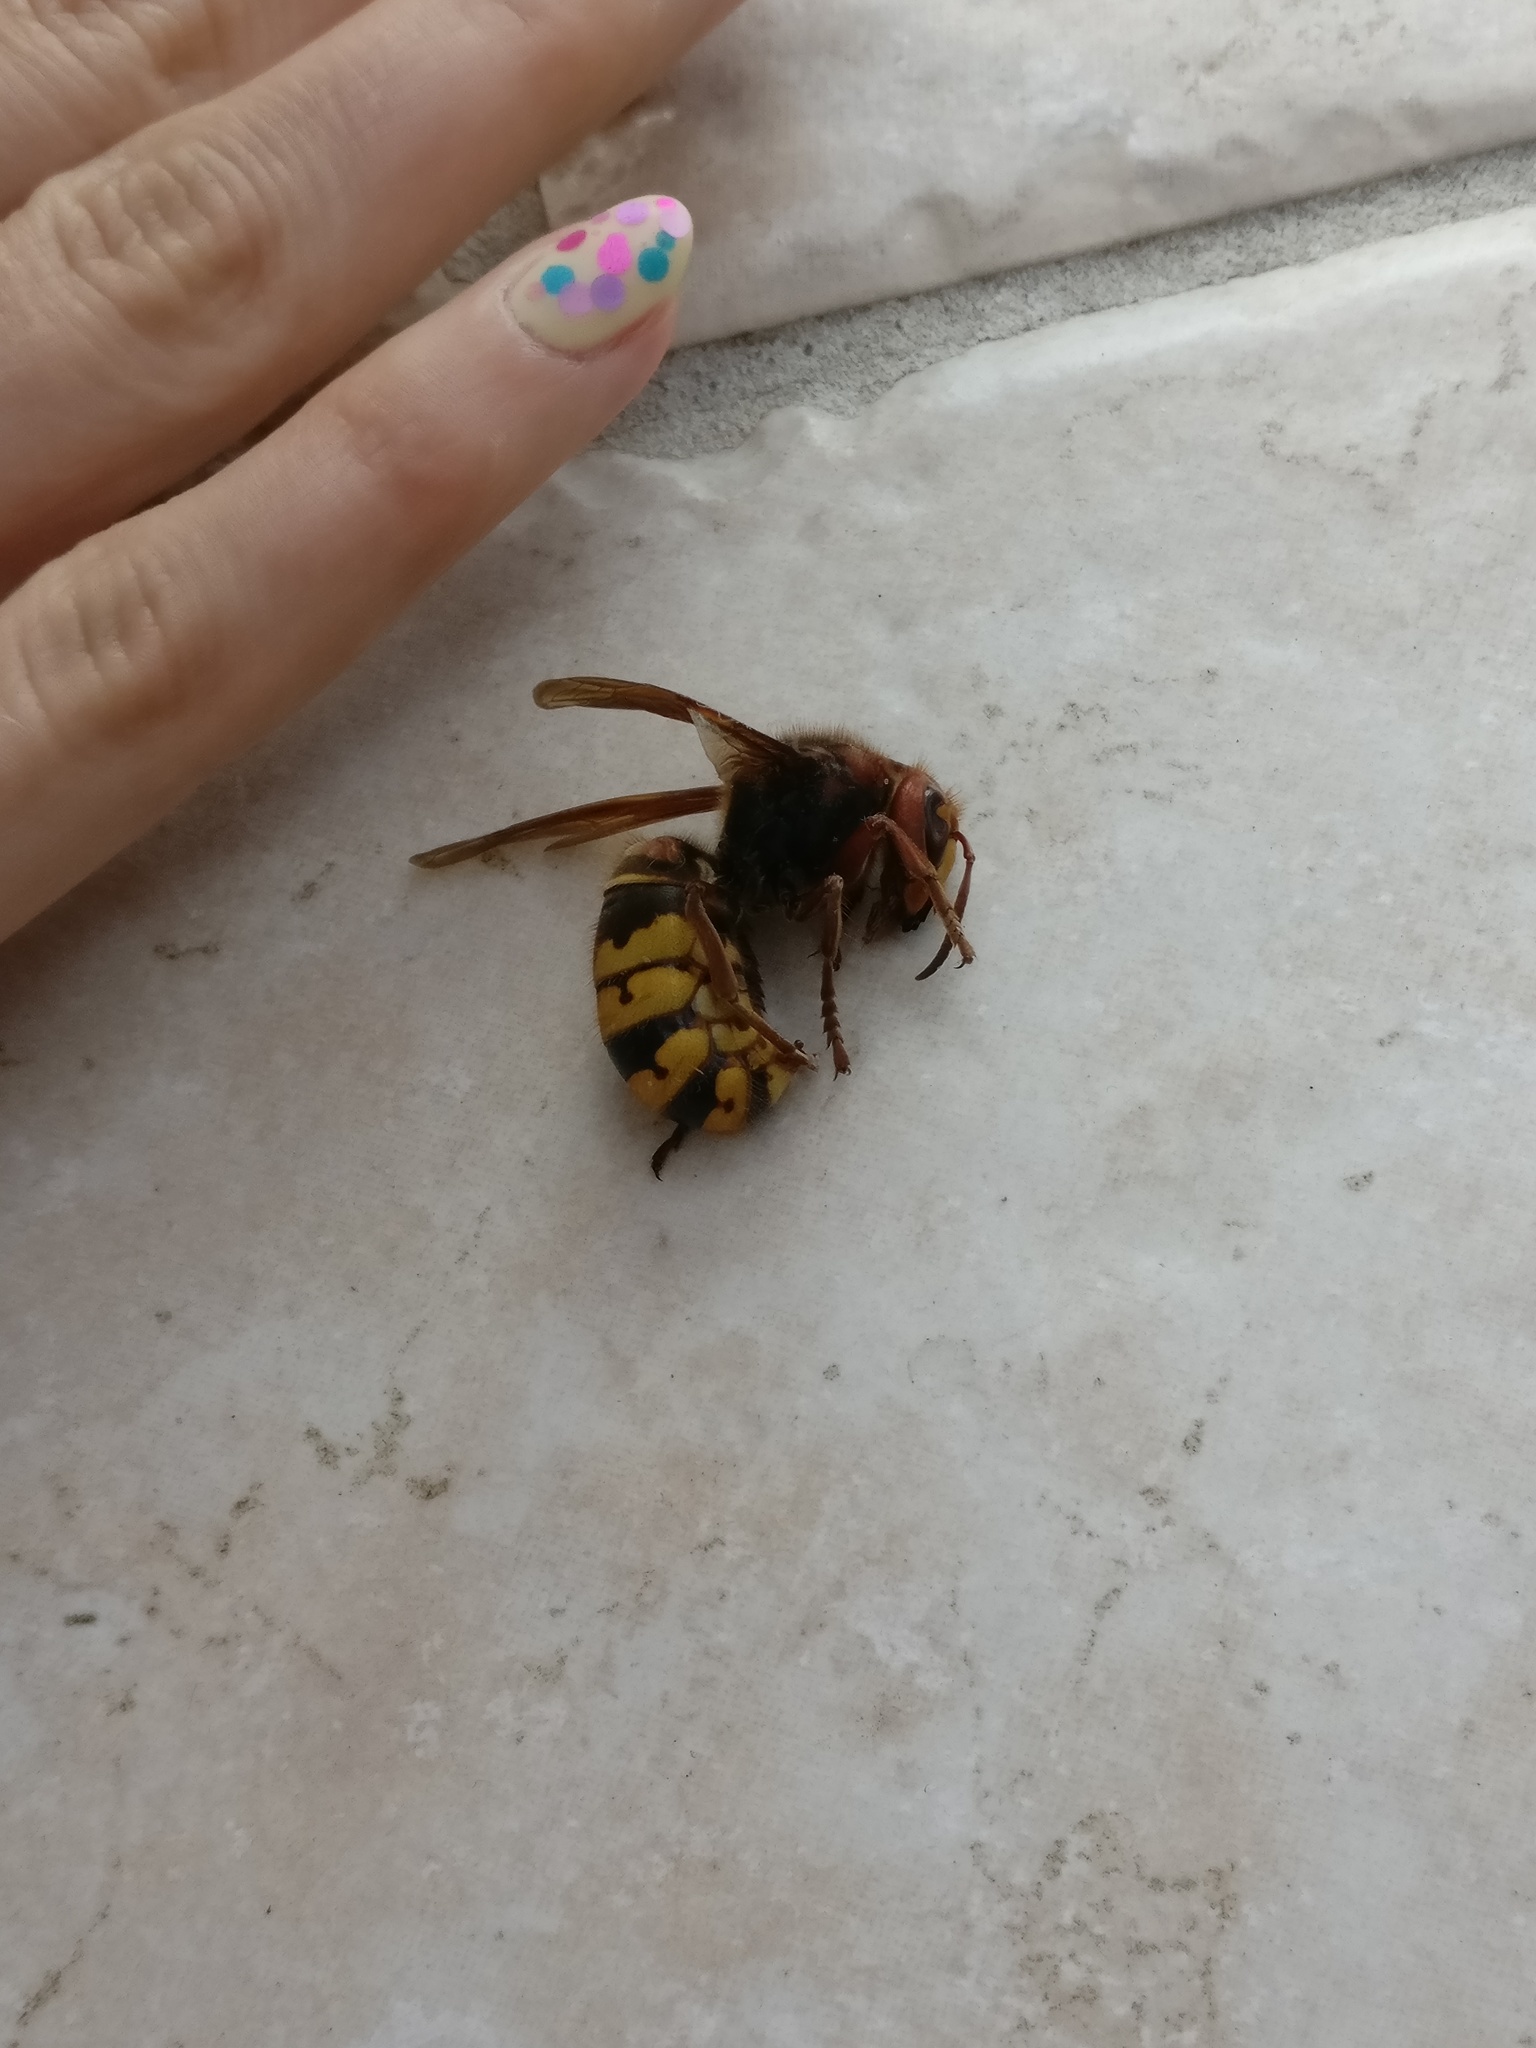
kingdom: Animalia
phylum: Arthropoda
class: Insecta
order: Hymenoptera
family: Vespidae
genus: Vespa
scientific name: Vespa crabro
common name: Hornet
